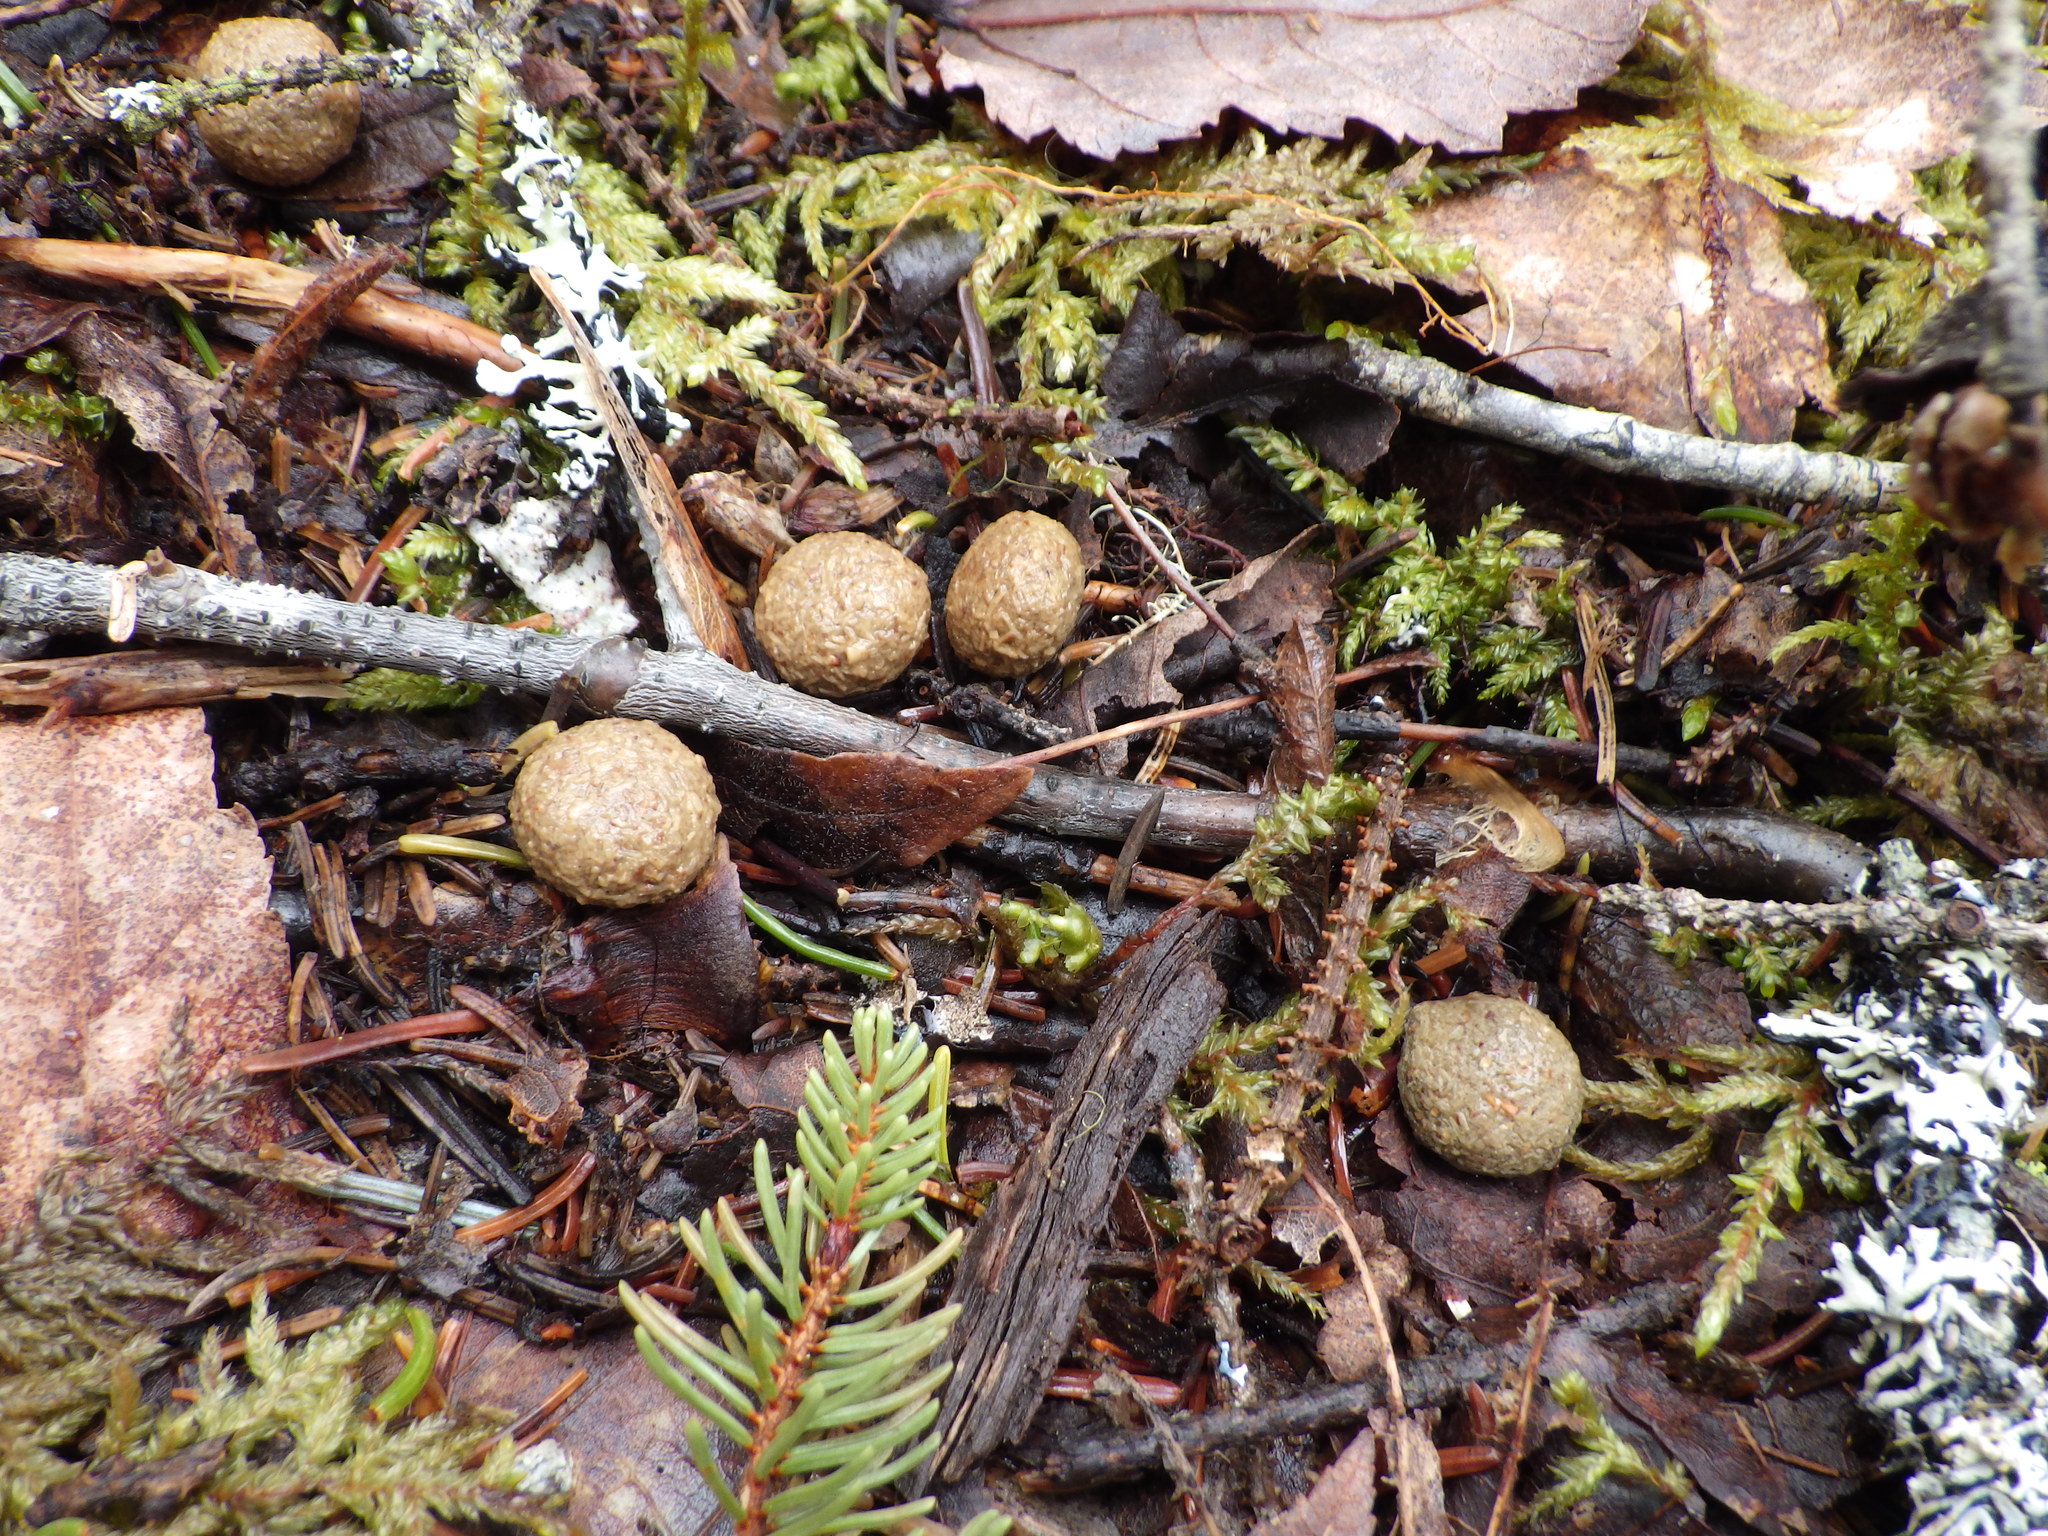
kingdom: Animalia
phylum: Chordata
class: Mammalia
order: Lagomorpha
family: Leporidae
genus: Lepus
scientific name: Lepus americanus
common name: Snowshoe hare
